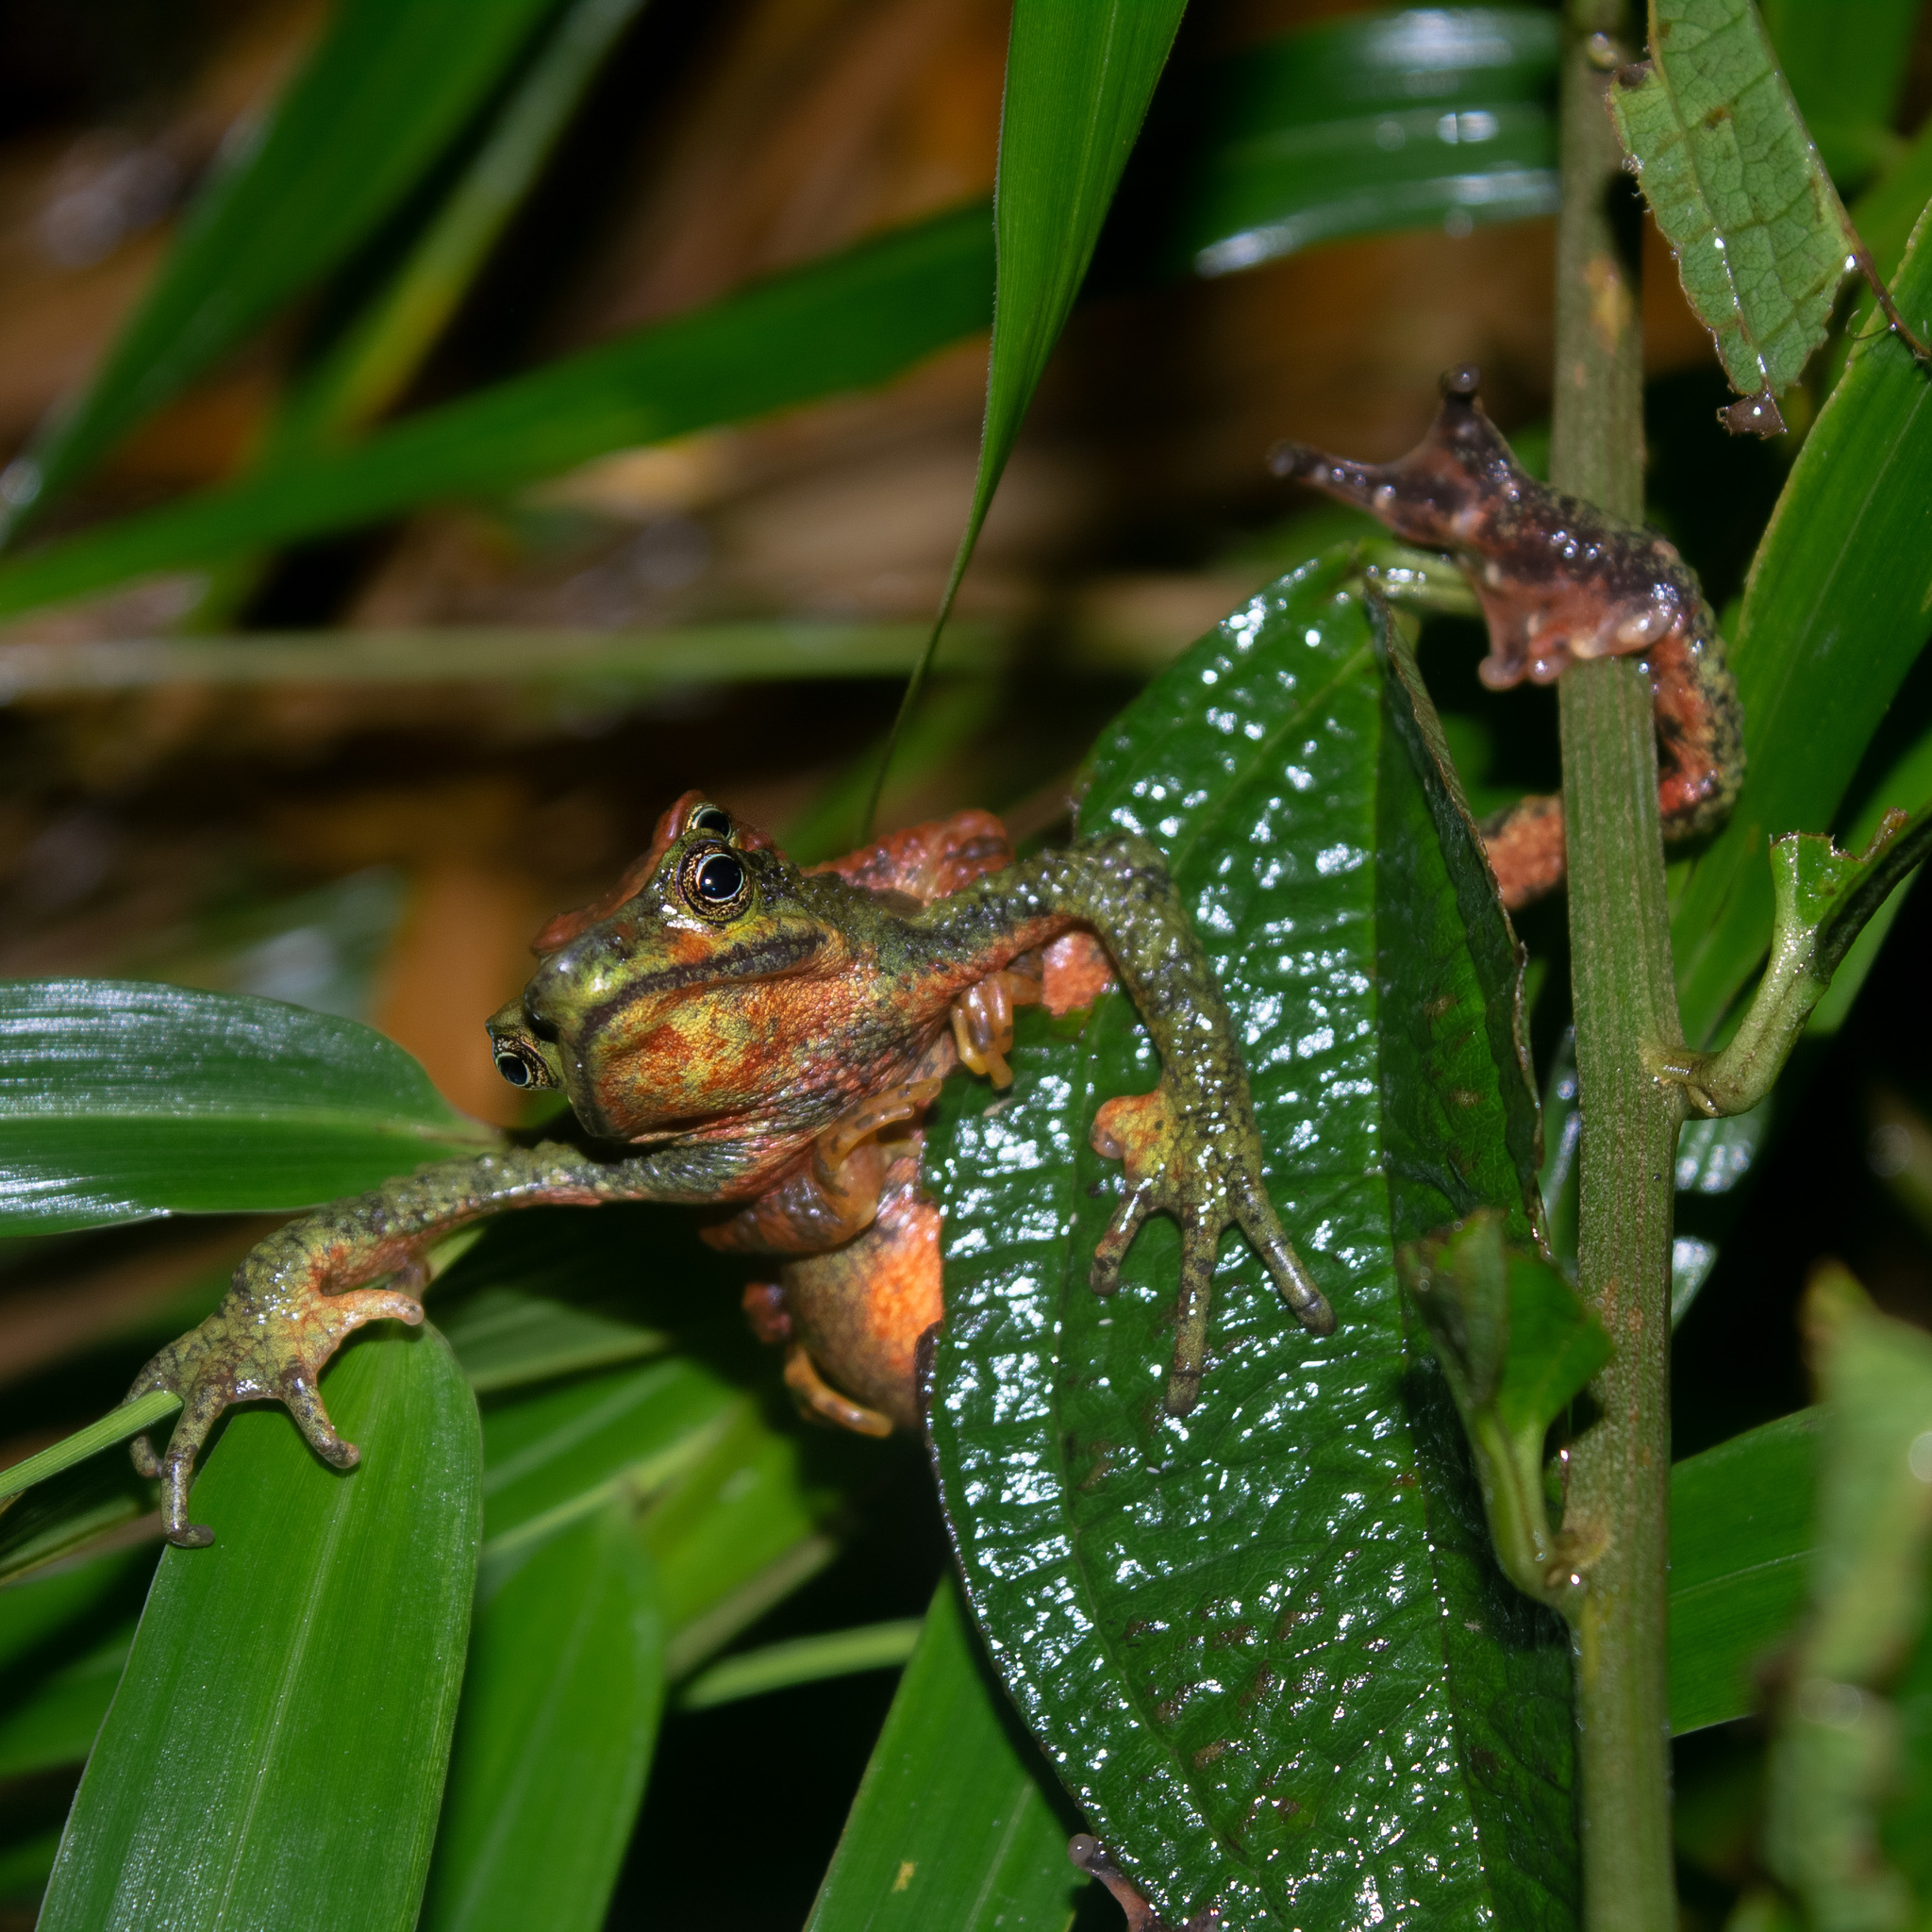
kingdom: Animalia
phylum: Chordata
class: Amphibia
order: Anura
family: Bufonidae
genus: Atelopus
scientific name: Atelopus laetissimus
